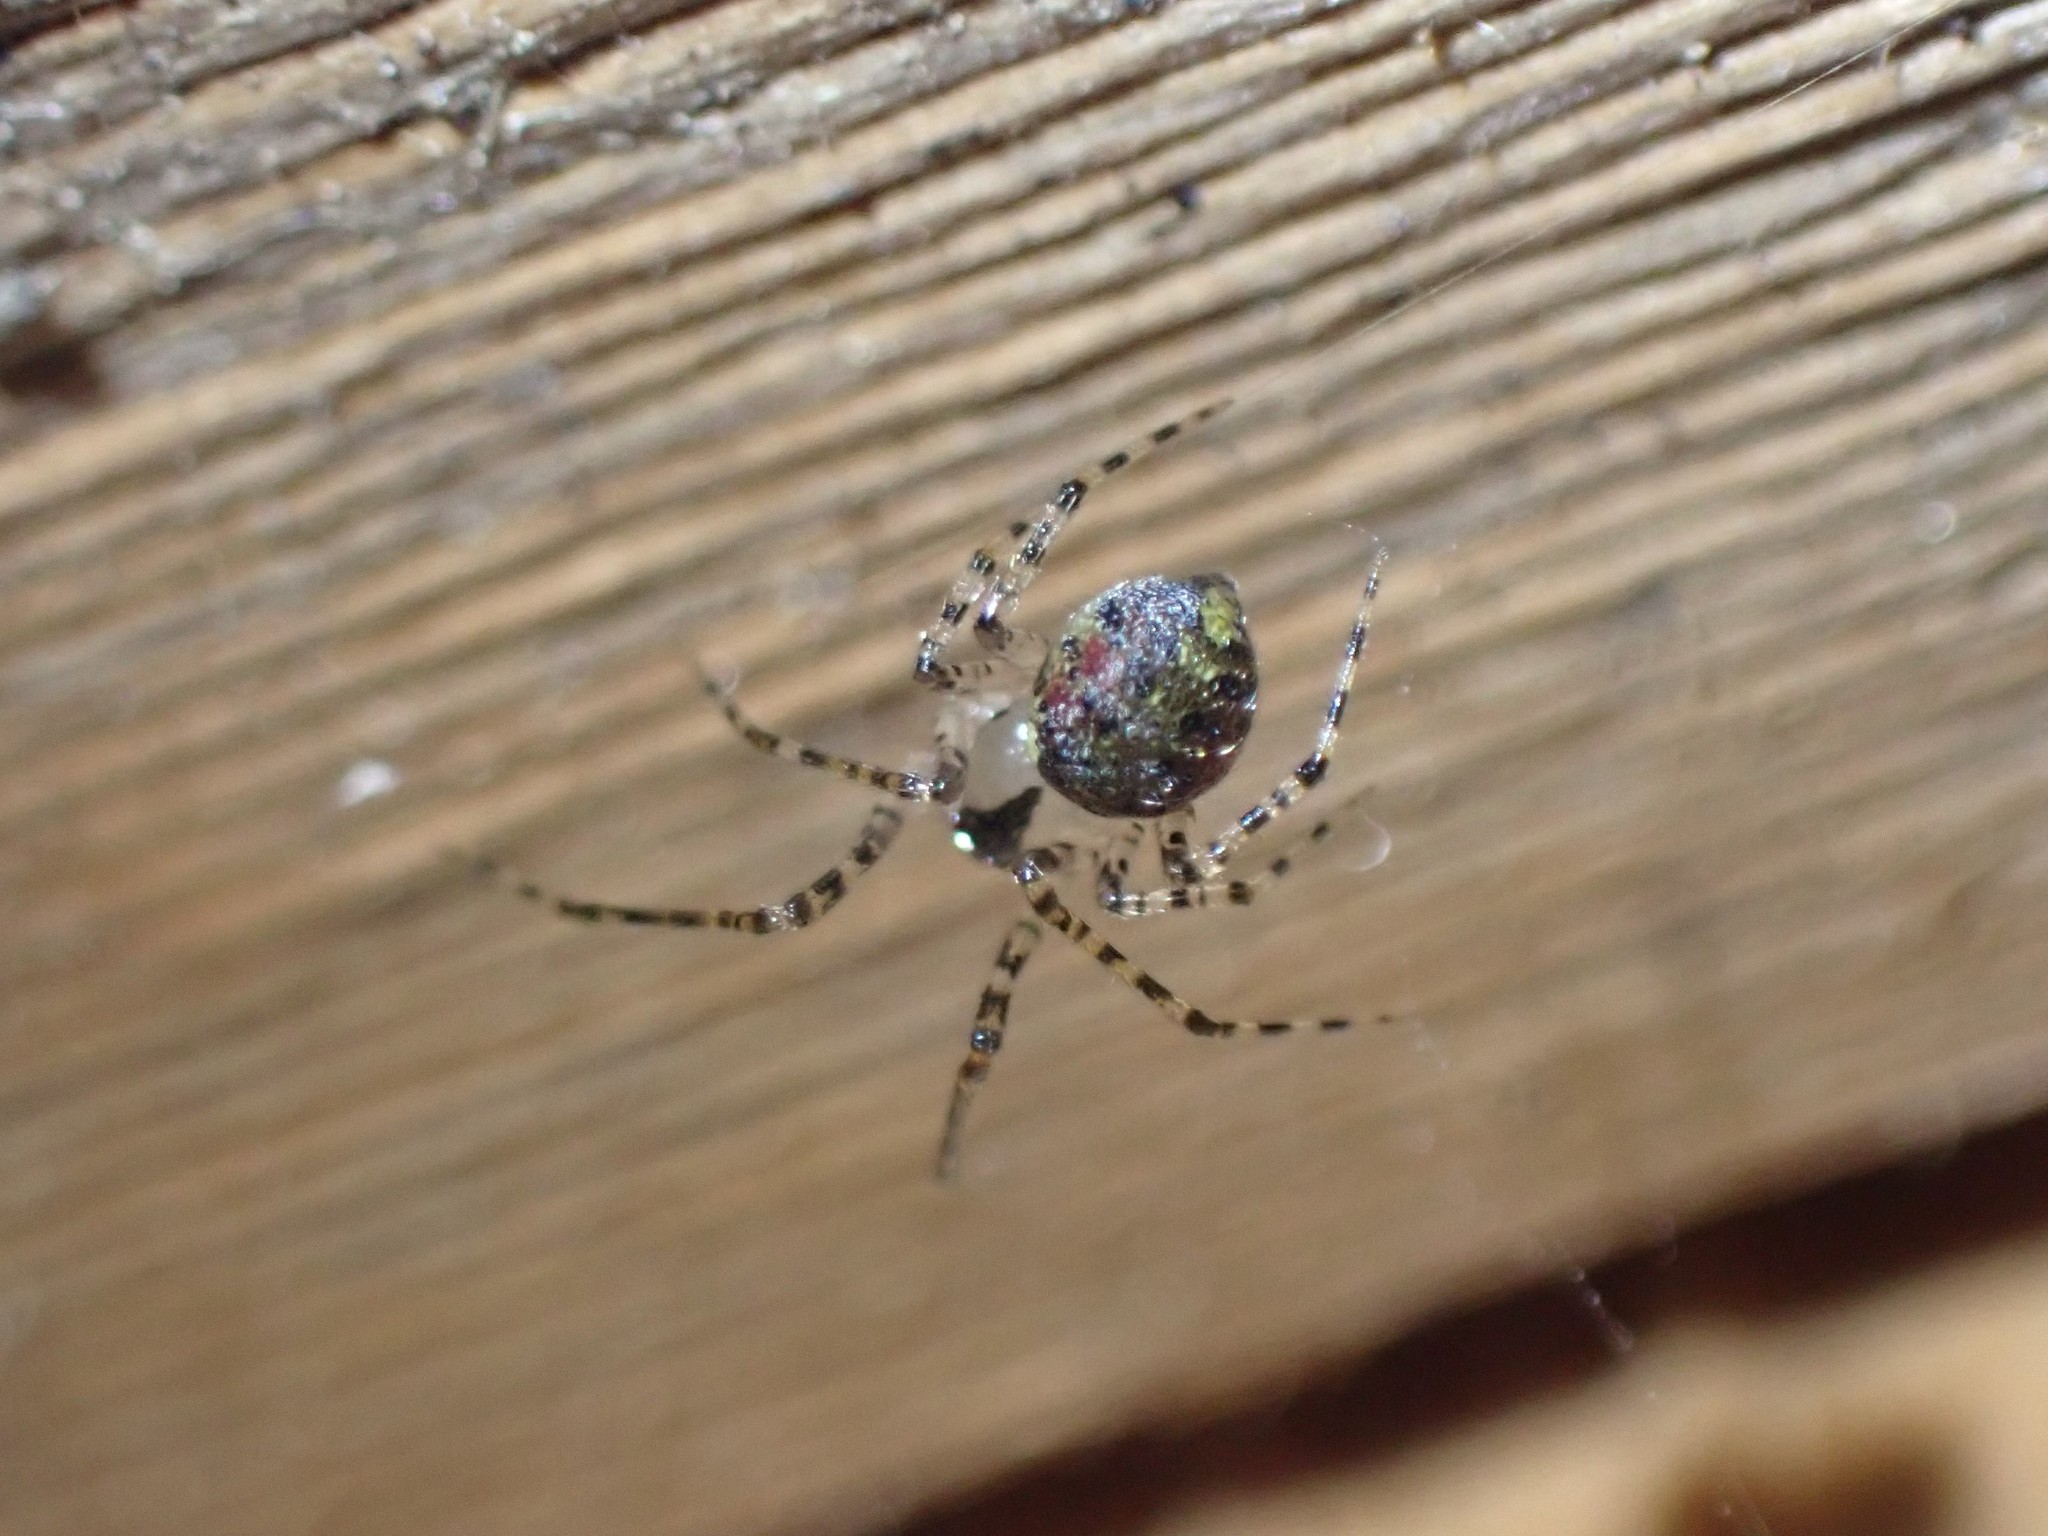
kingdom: Animalia
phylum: Arthropoda
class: Arachnida
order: Araneae
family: Theridiidae
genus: Platnickina
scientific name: Platnickina tincta
